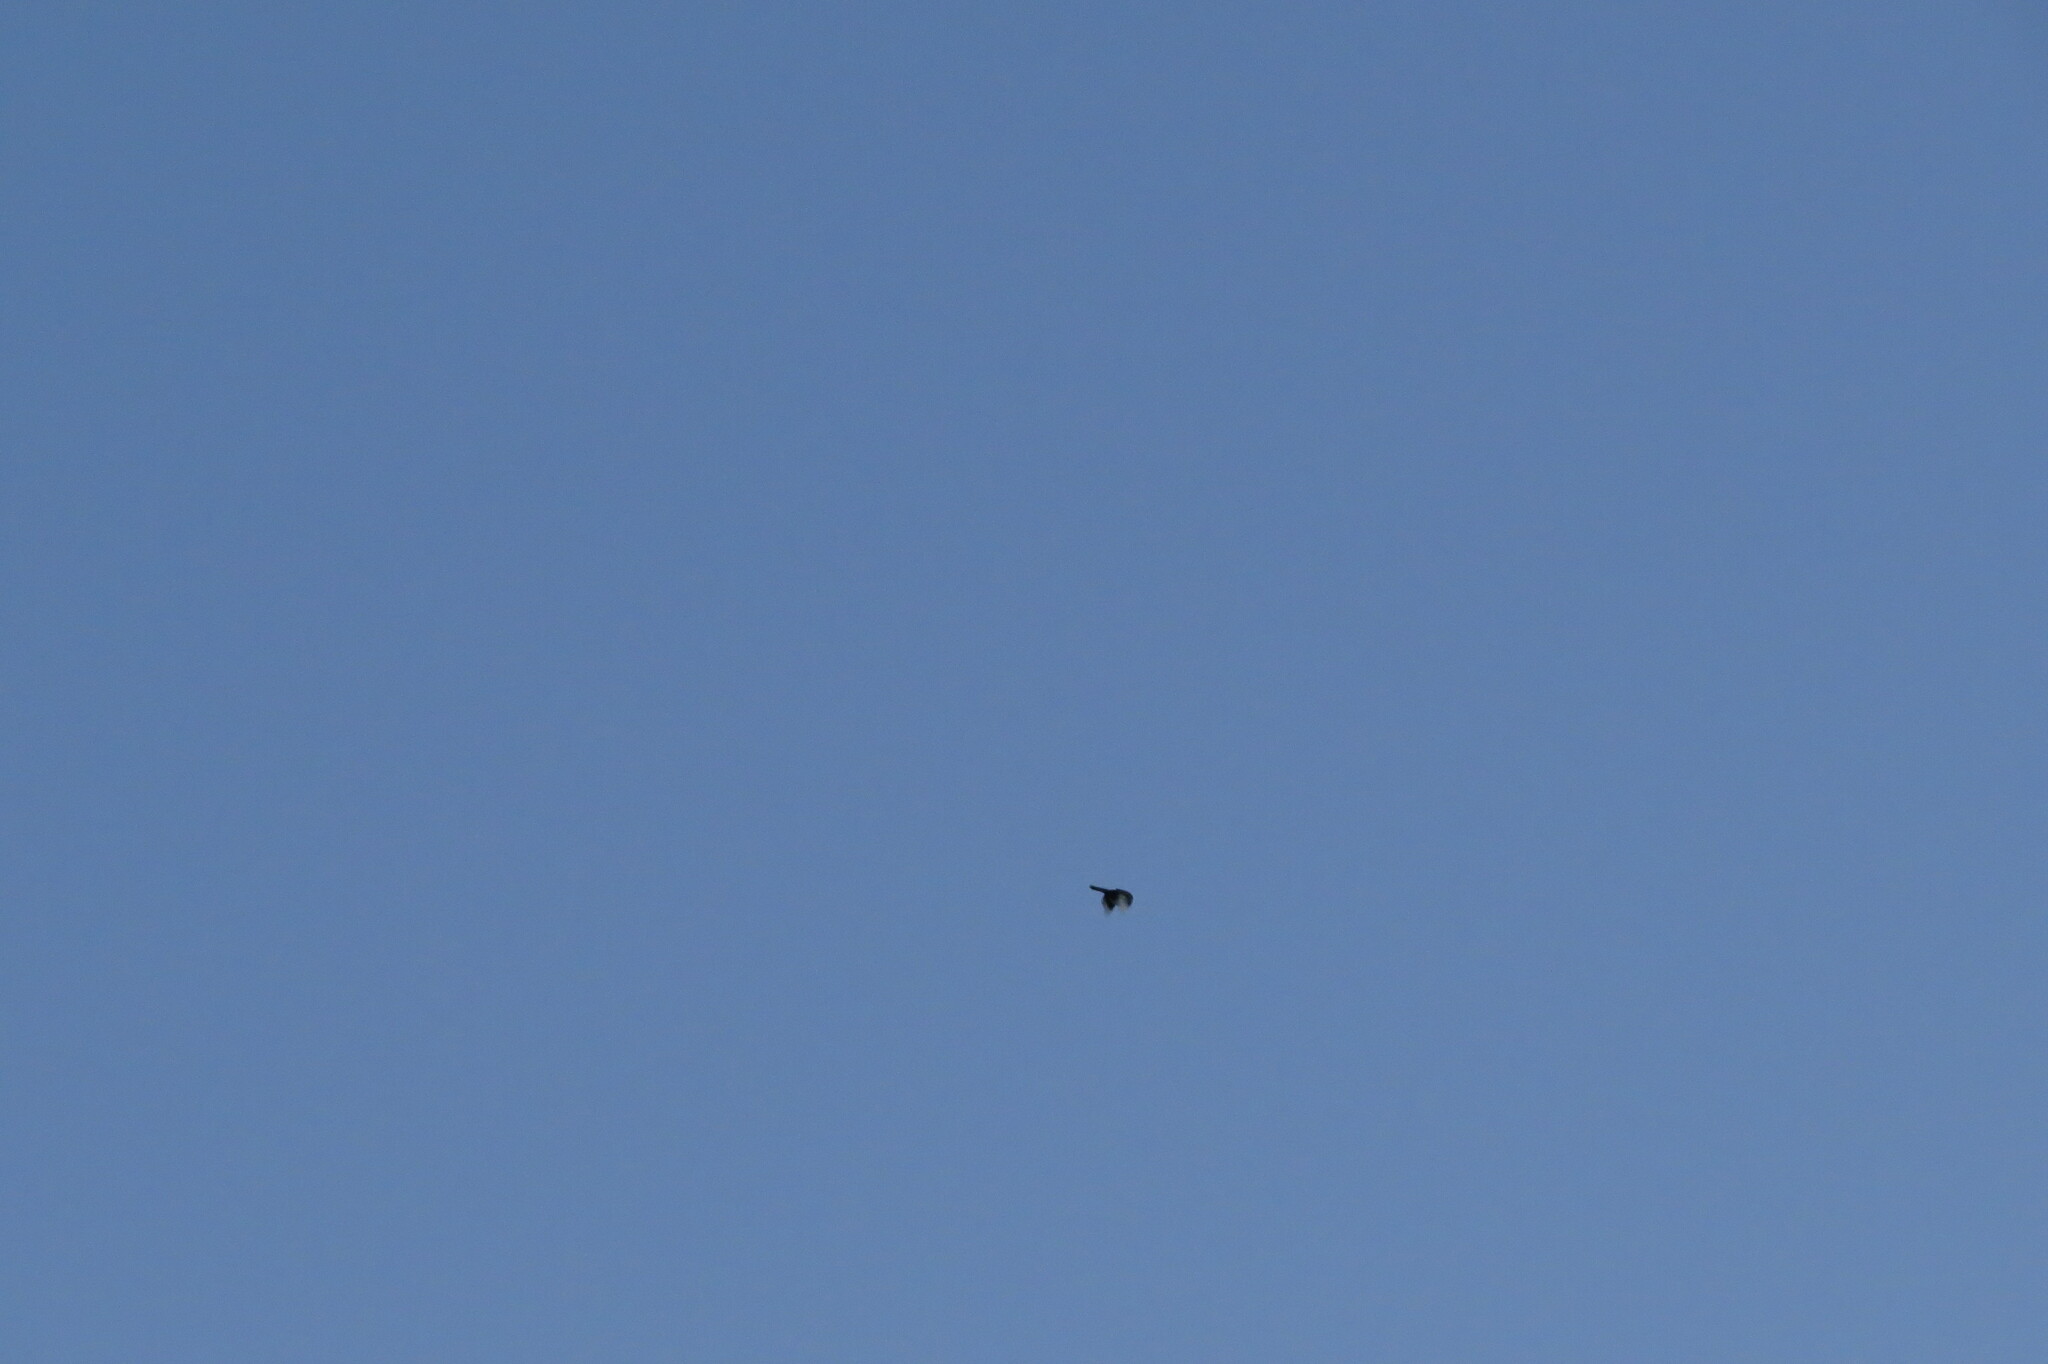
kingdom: Animalia
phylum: Chordata
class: Aves
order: Passeriformes
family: Corvidae
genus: Pica
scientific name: Pica pica
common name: Eurasian magpie
